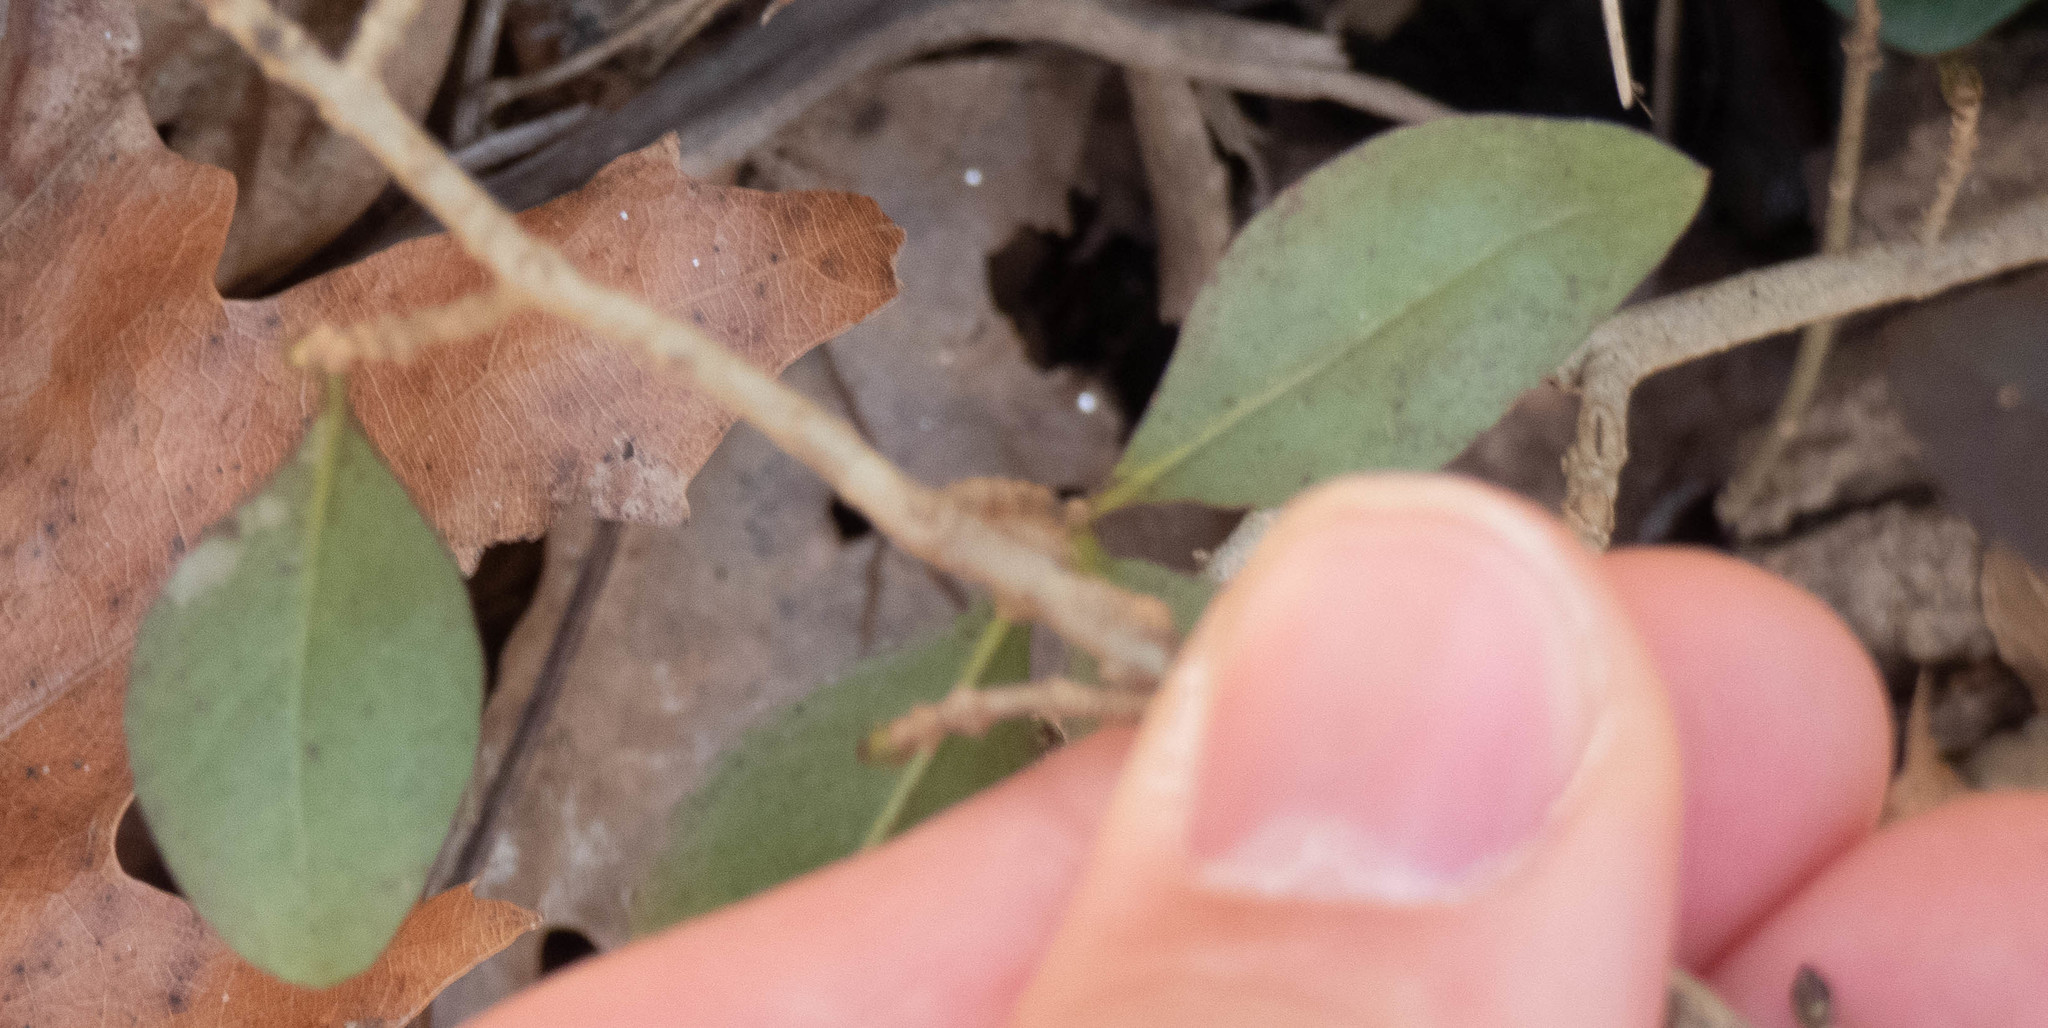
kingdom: Plantae
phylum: Tracheophyta
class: Magnoliopsida
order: Lamiales
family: Oleaceae
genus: Ligustrum
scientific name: Ligustrum
